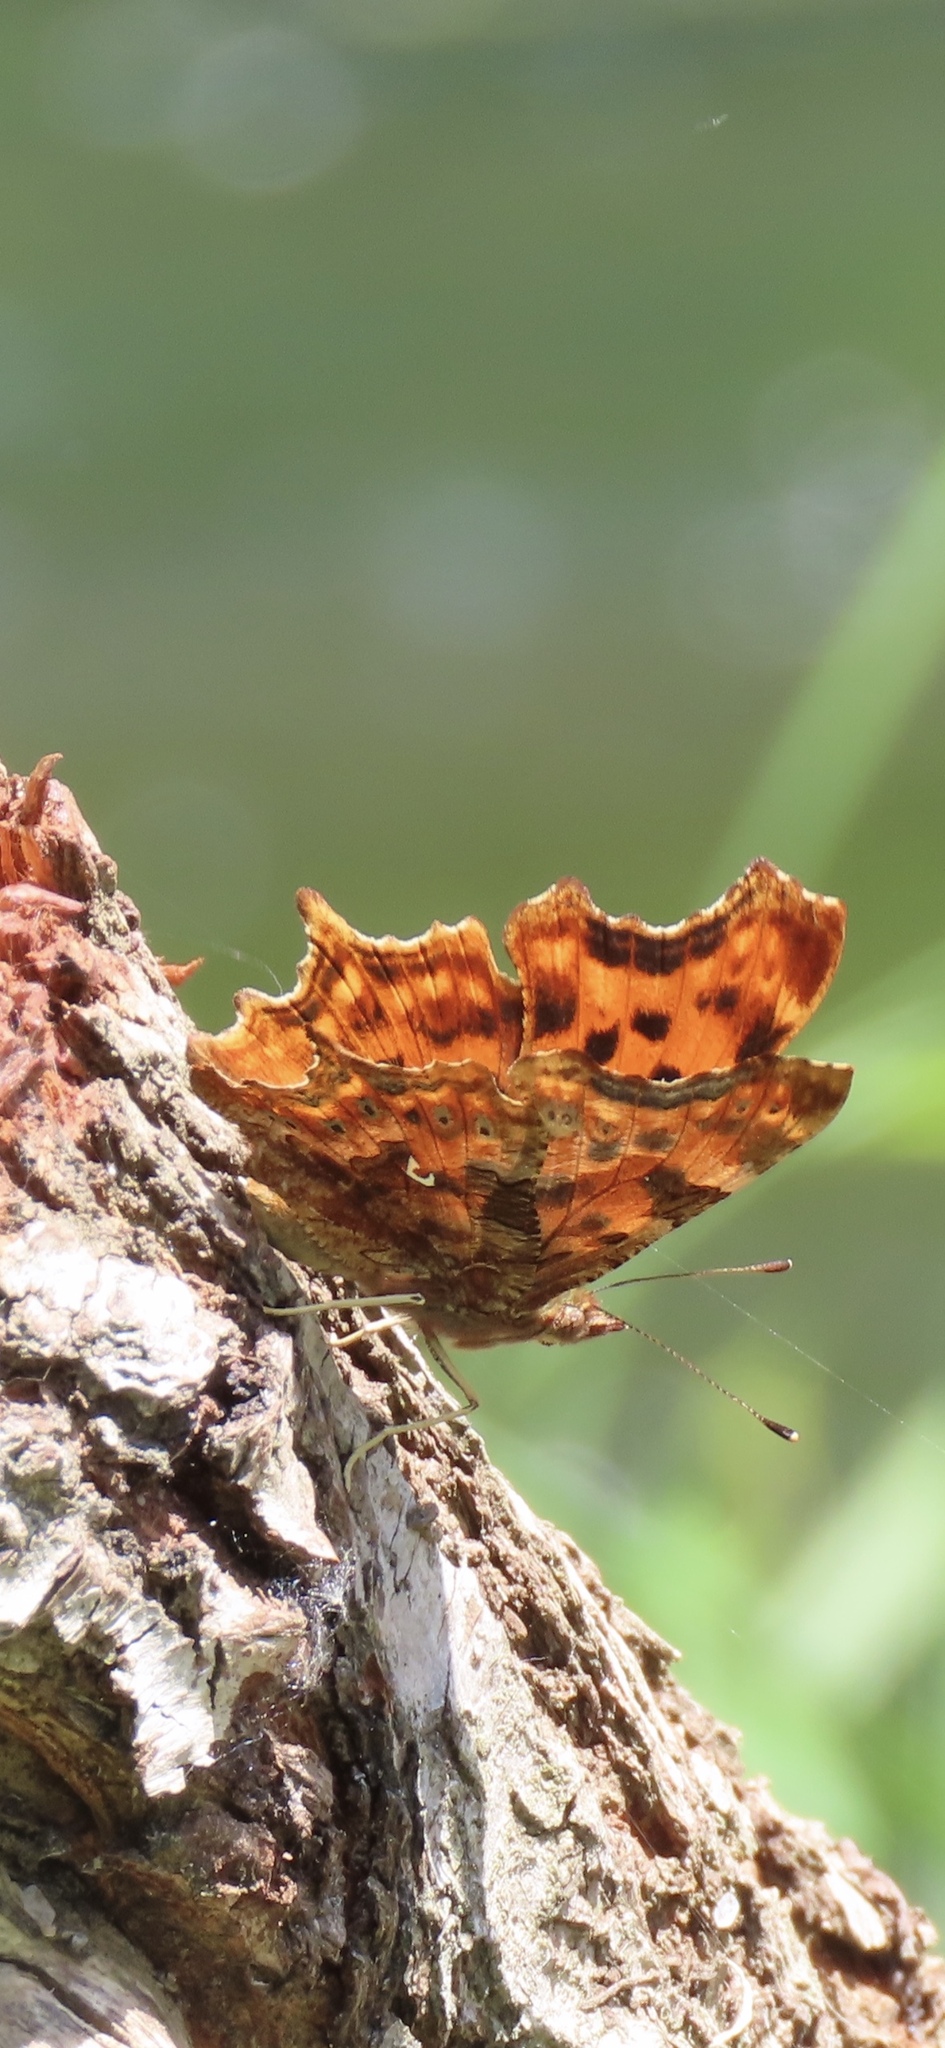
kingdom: Animalia
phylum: Arthropoda
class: Insecta
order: Lepidoptera
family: Nymphalidae
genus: Polygonia
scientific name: Polygonia c-album
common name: Comma
